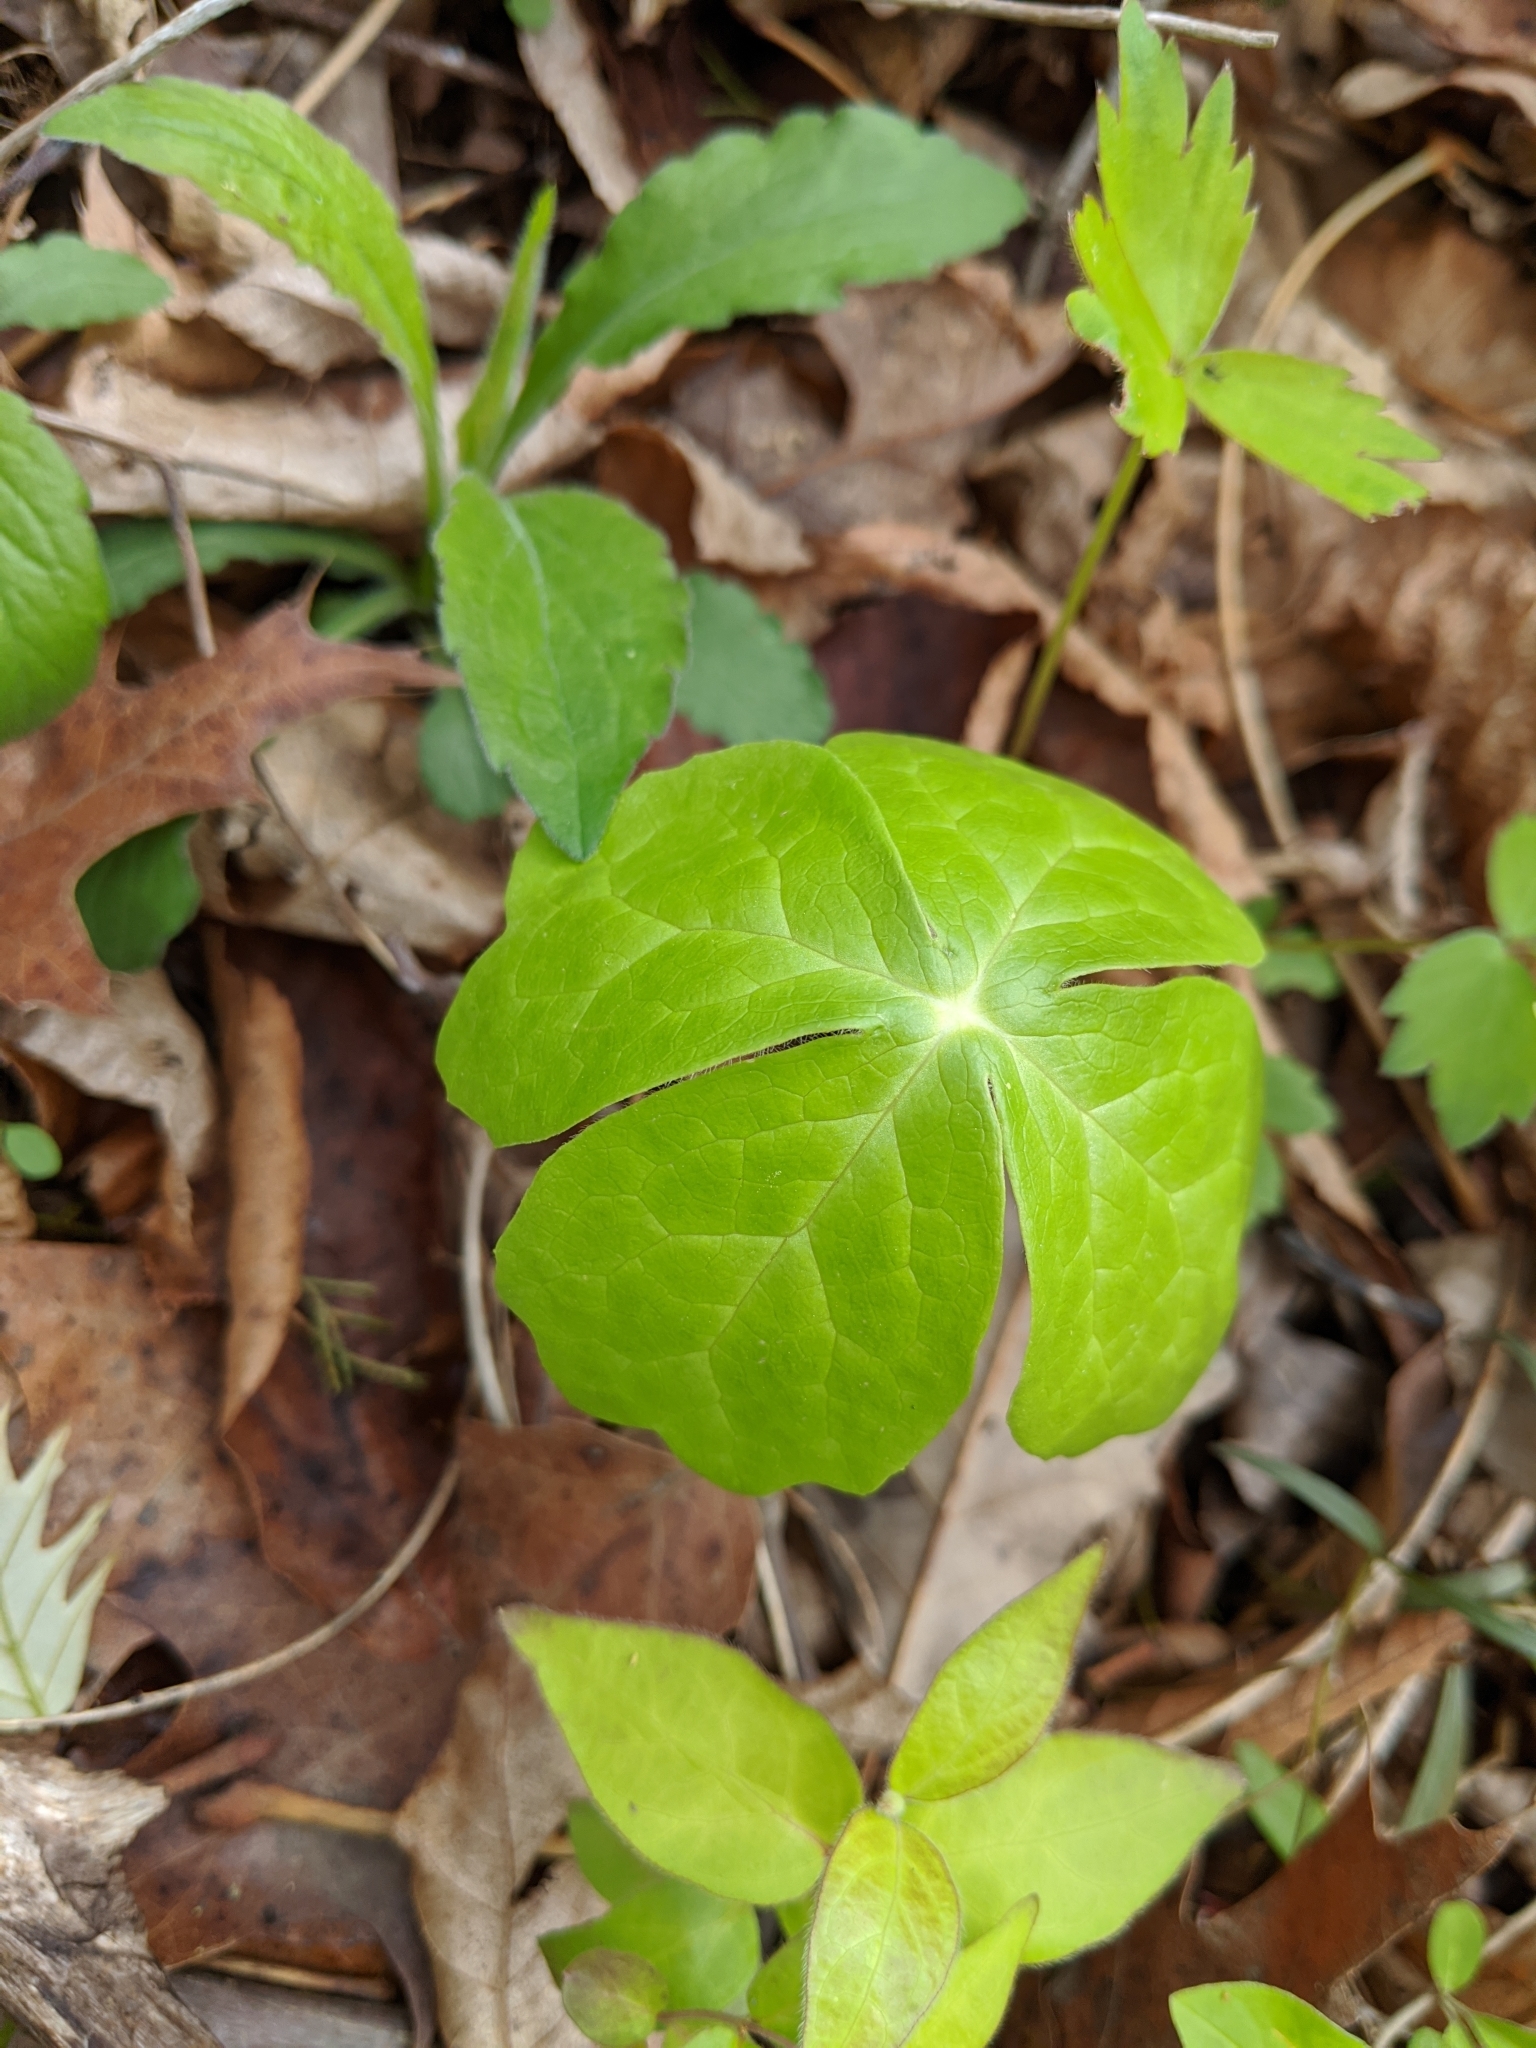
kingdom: Plantae
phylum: Tracheophyta
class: Magnoliopsida
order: Ranunculales
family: Berberidaceae
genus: Podophyllum
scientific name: Podophyllum peltatum
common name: Wild mandrake
